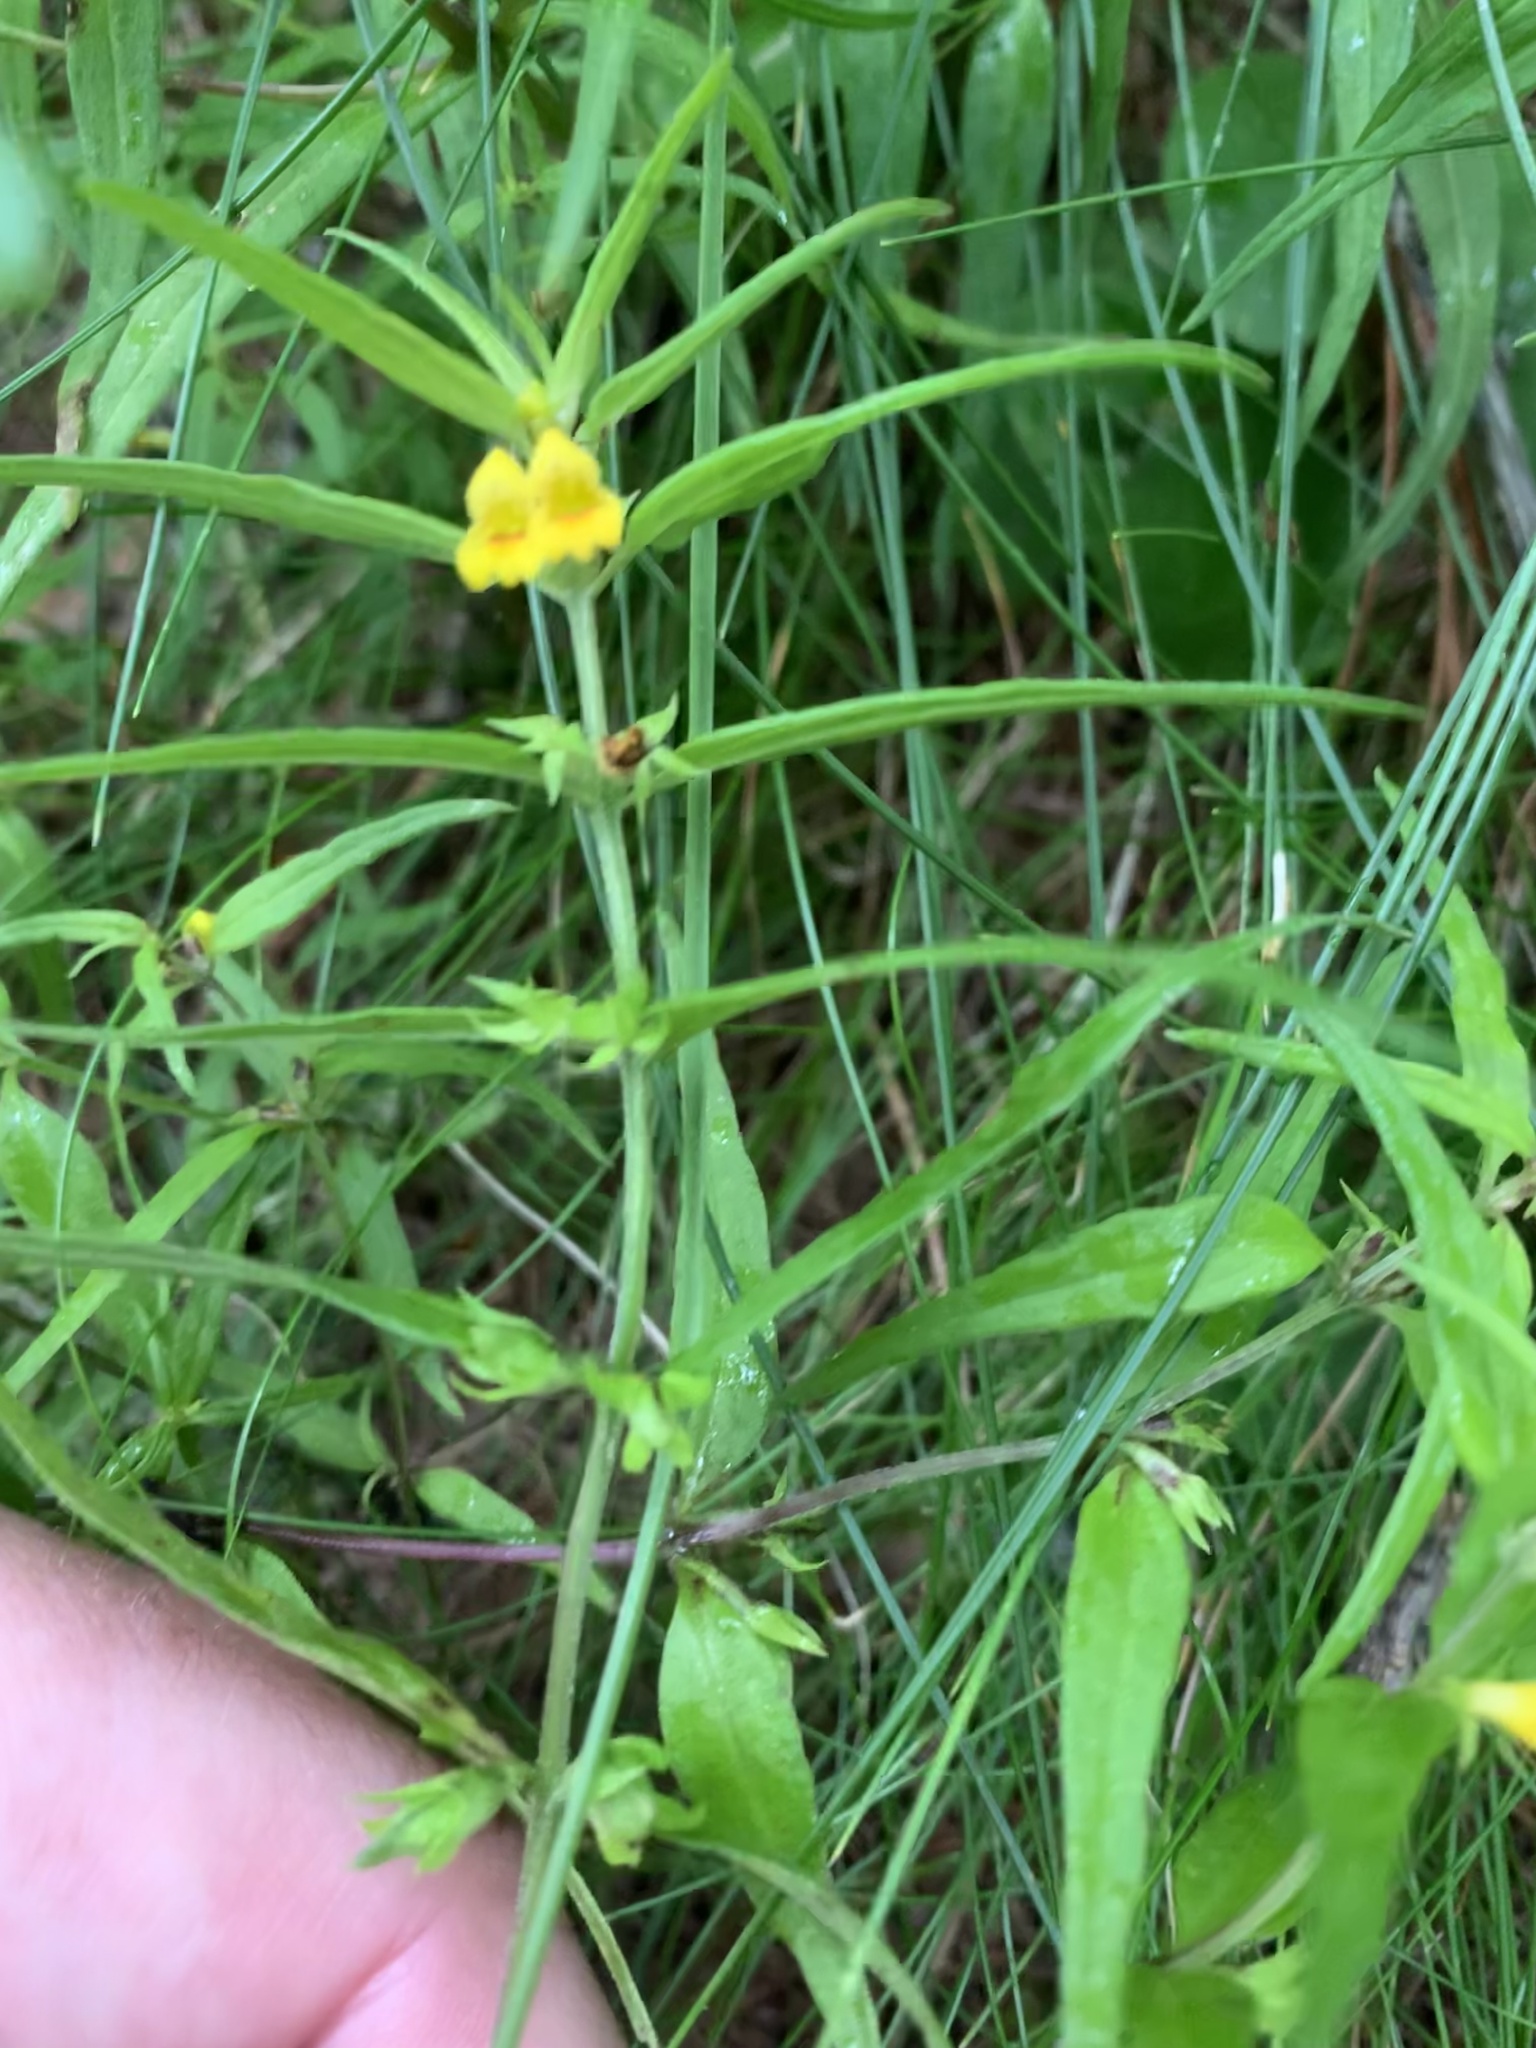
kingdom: Plantae
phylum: Tracheophyta
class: Magnoliopsida
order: Lamiales
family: Orobanchaceae
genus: Melampyrum
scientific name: Melampyrum sylvaticum
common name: Small cow-wheat
